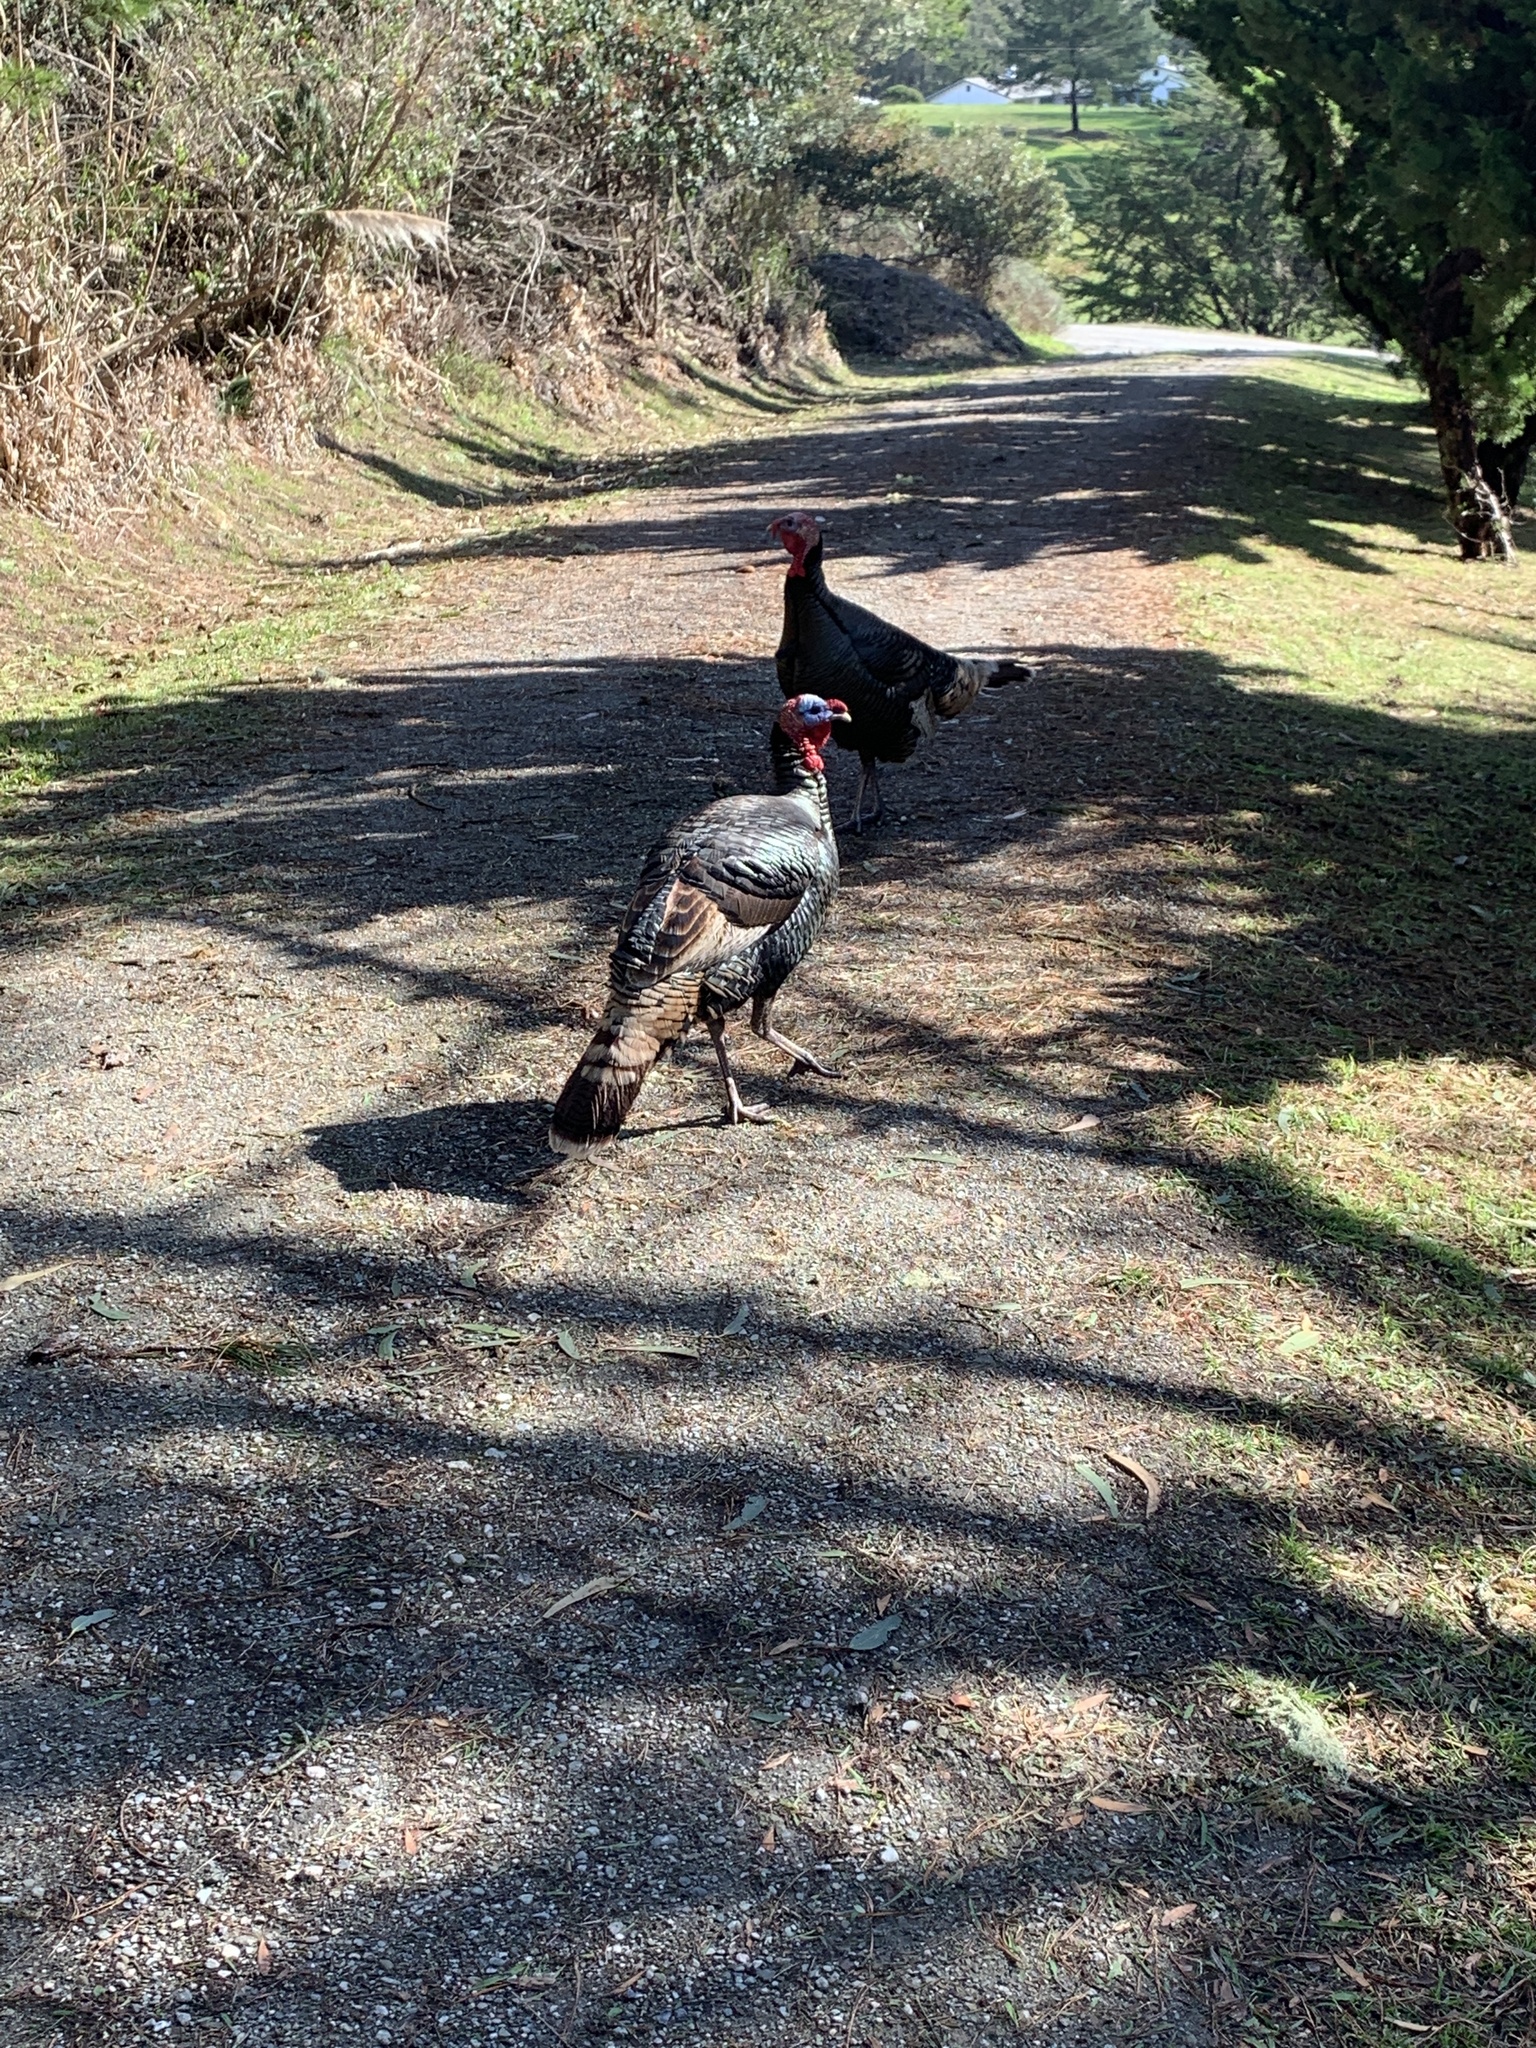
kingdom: Animalia
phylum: Chordata
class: Aves
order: Galliformes
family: Phasianidae
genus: Meleagris
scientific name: Meleagris gallopavo
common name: Wild turkey
